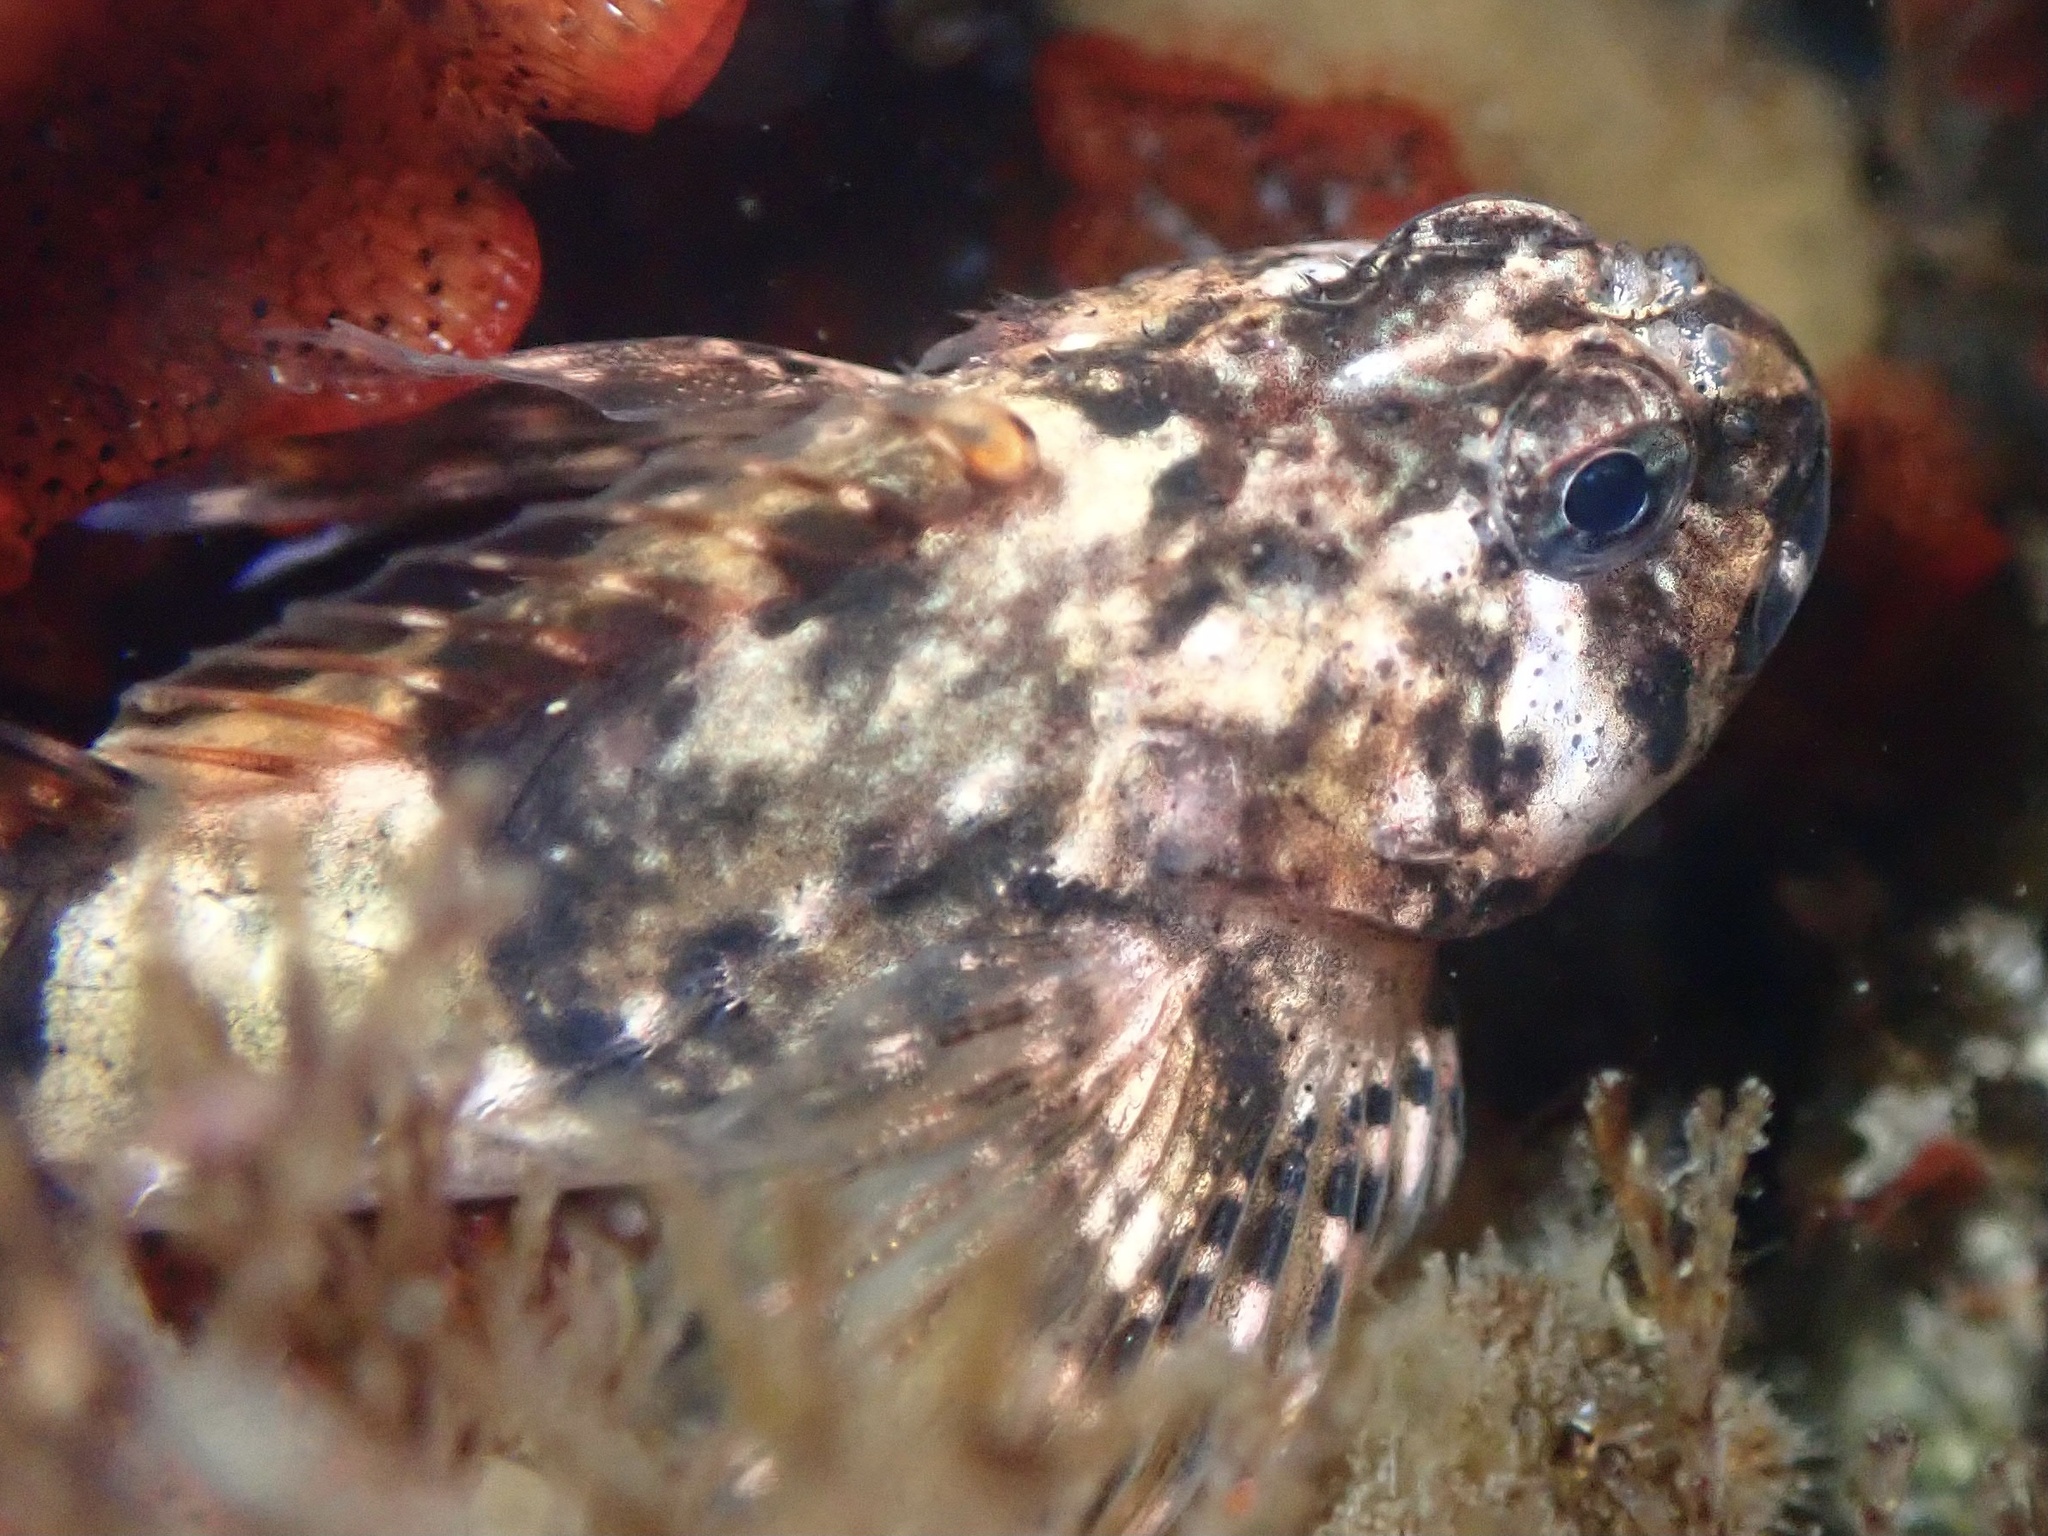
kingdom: Animalia
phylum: Chordata
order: Scorpaeniformes
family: Cottidae
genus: Clinocottus
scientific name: Clinocottus globiceps
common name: Mosshead sculpin
